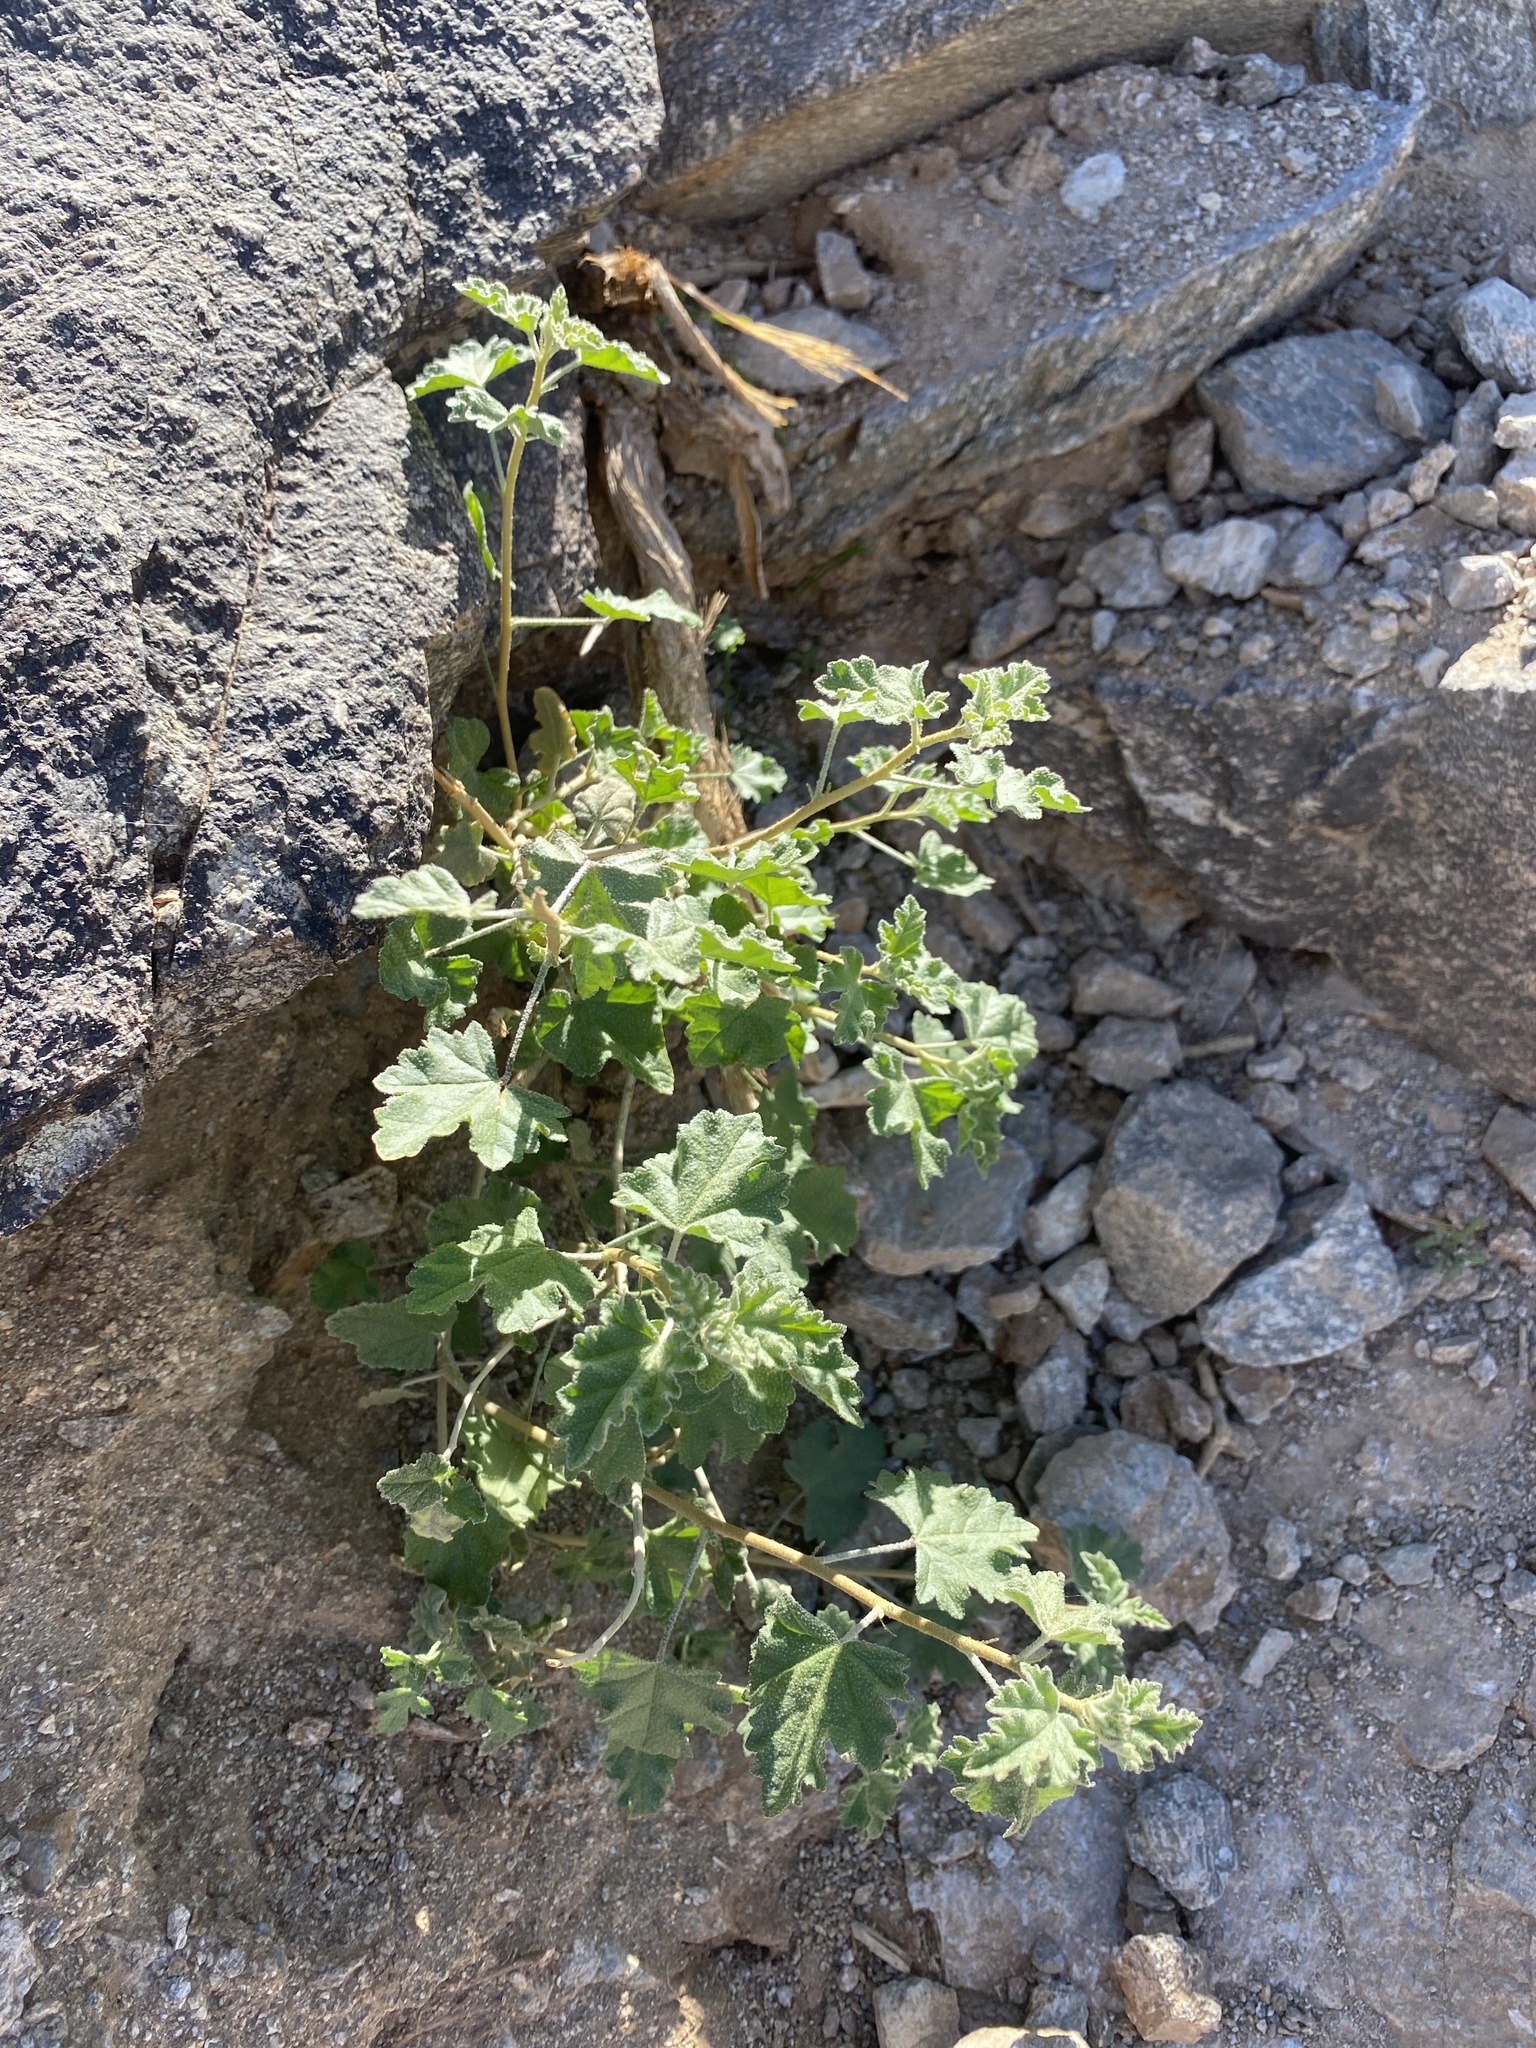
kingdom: Plantae
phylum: Tracheophyta
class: Magnoliopsida
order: Malvales
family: Malvaceae
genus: Sphaeralcea
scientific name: Sphaeralcea
